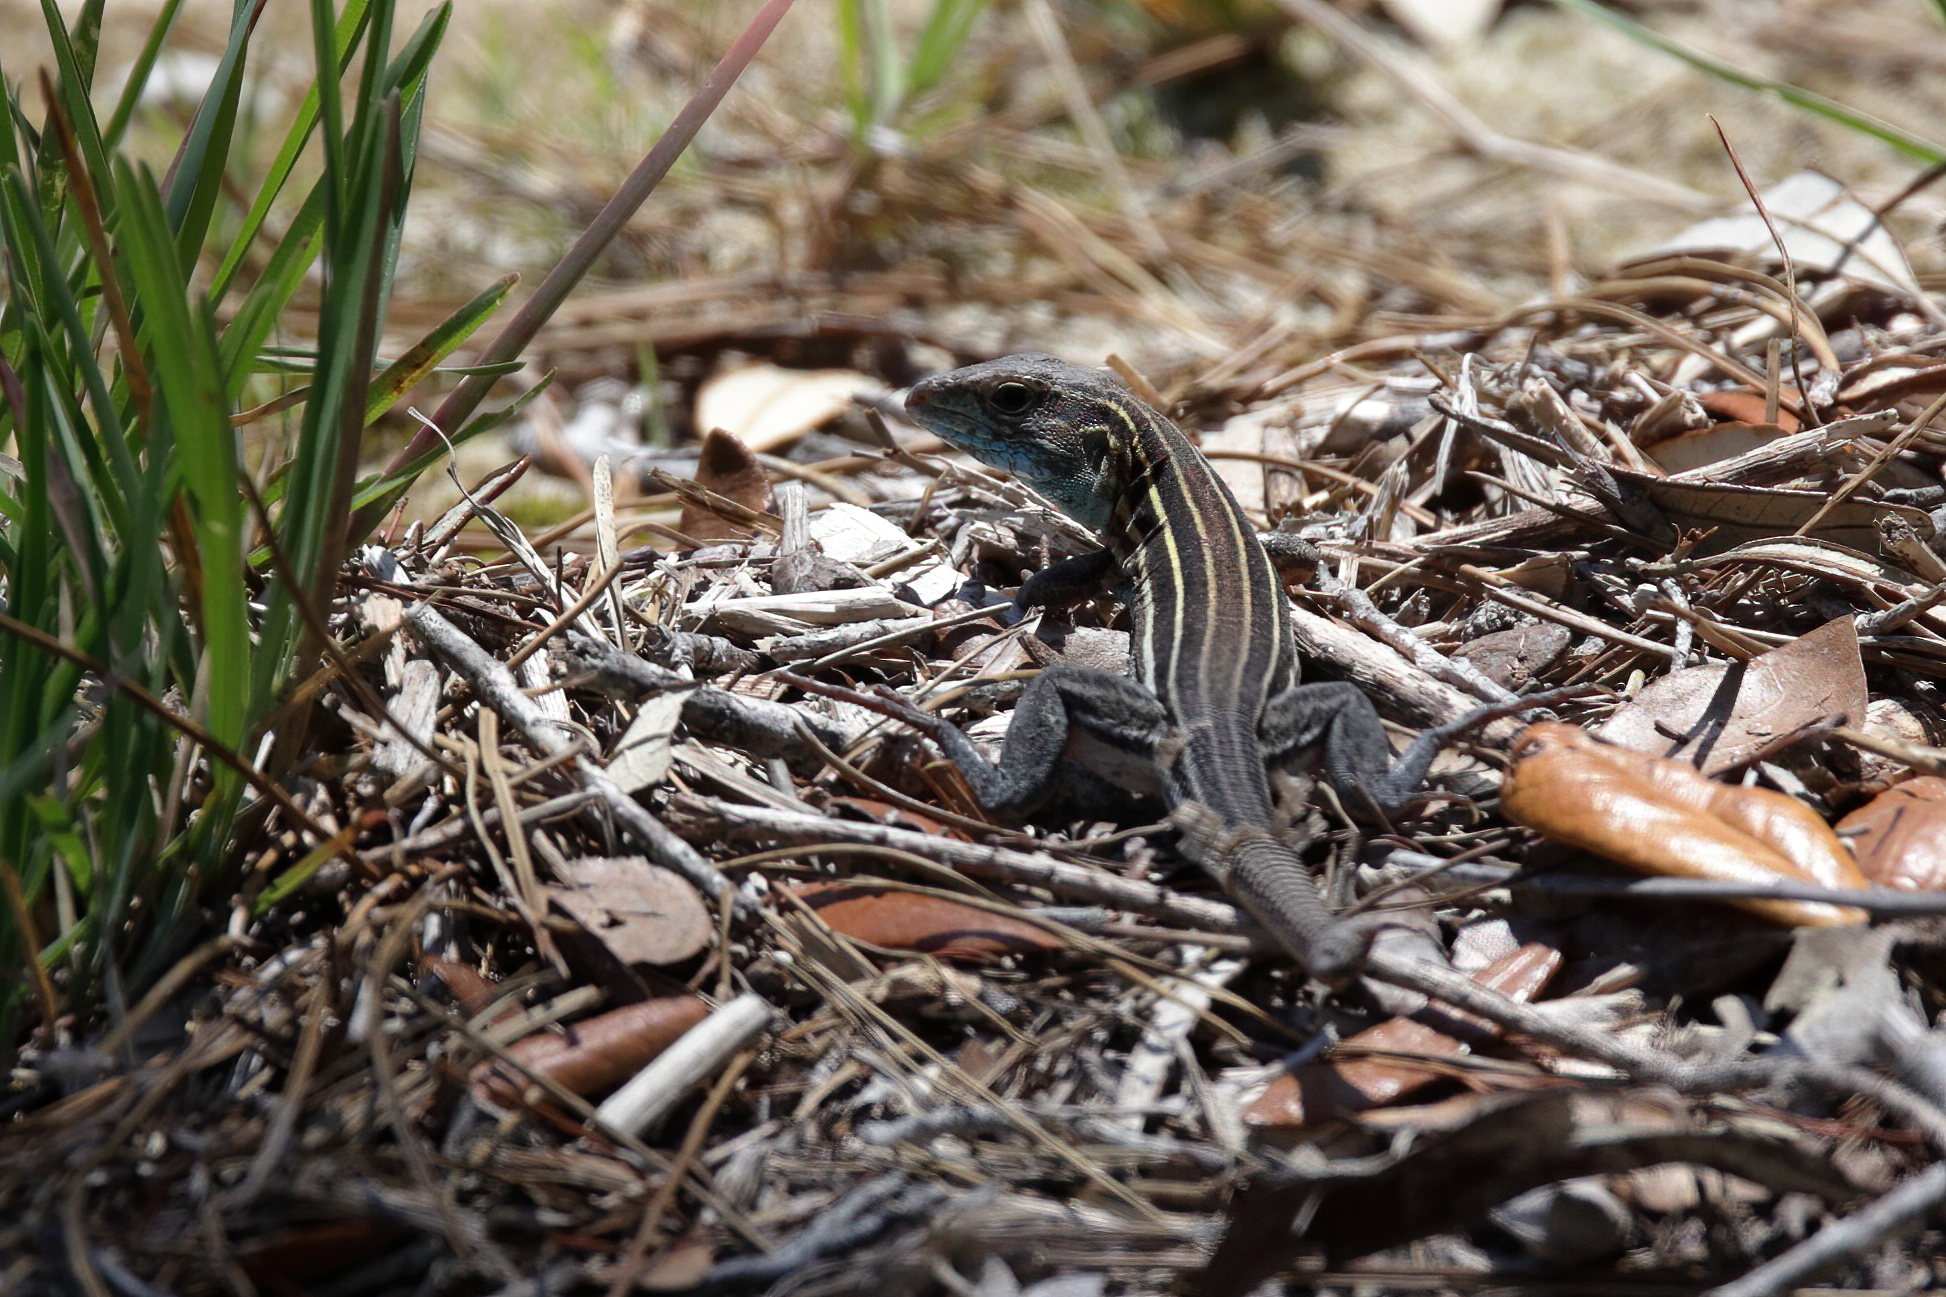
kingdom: Animalia
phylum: Chordata
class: Squamata
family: Teiidae
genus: Aspidoscelis
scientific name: Aspidoscelis sexlineatus
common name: Six-lined racerunner
